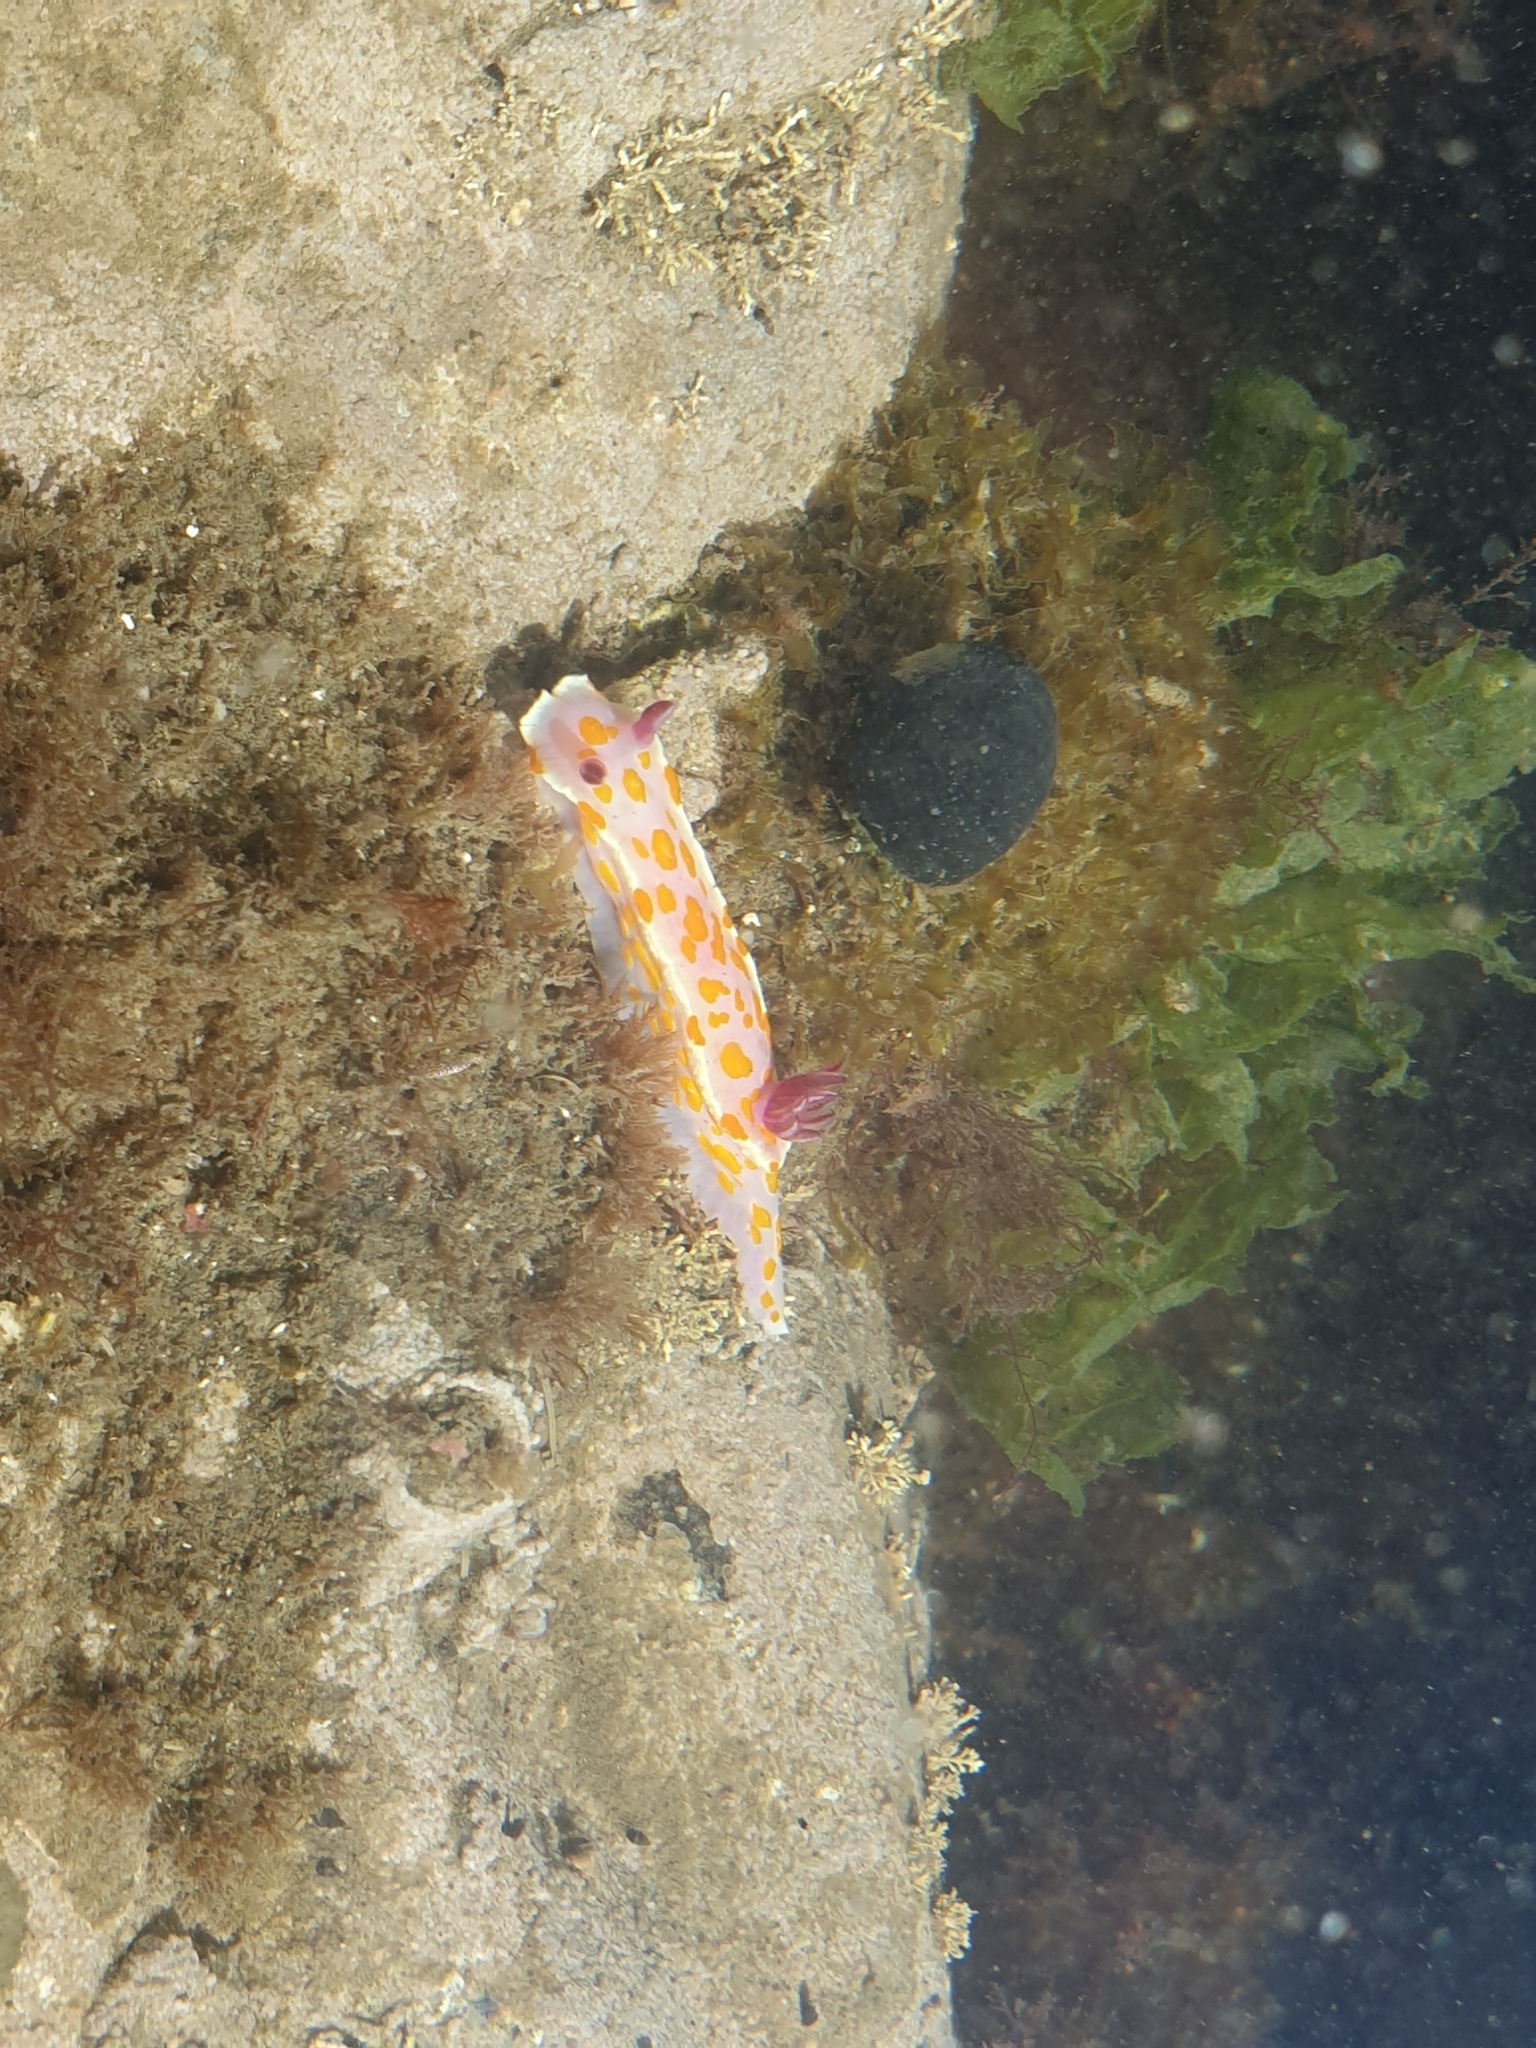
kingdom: Animalia
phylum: Mollusca
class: Gastropoda
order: Nudibranchia
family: Chromodorididae
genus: Ceratosoma
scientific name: Ceratosoma amoenum
